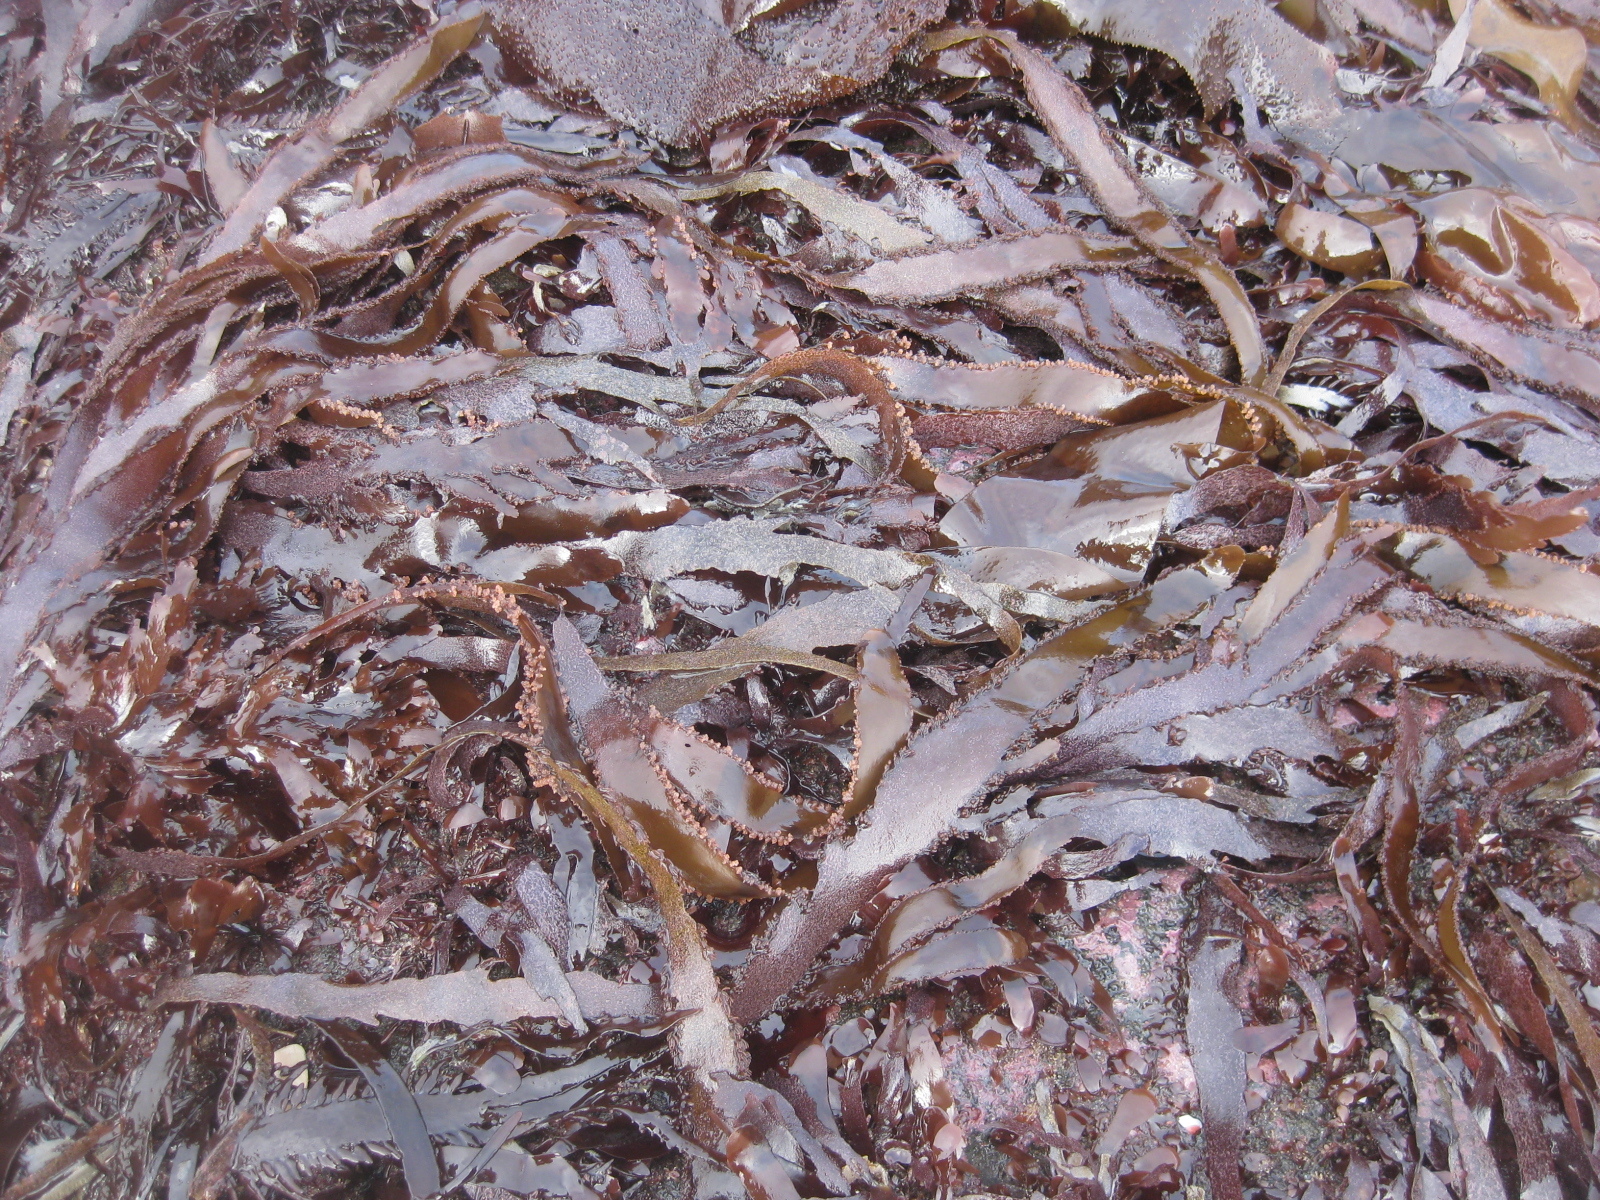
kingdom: Plantae
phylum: Rhodophyta
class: Florideophyceae
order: Ceramiales
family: Rhodomelaceae
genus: Cladhymenia
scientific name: Cladhymenia oblongifolia
